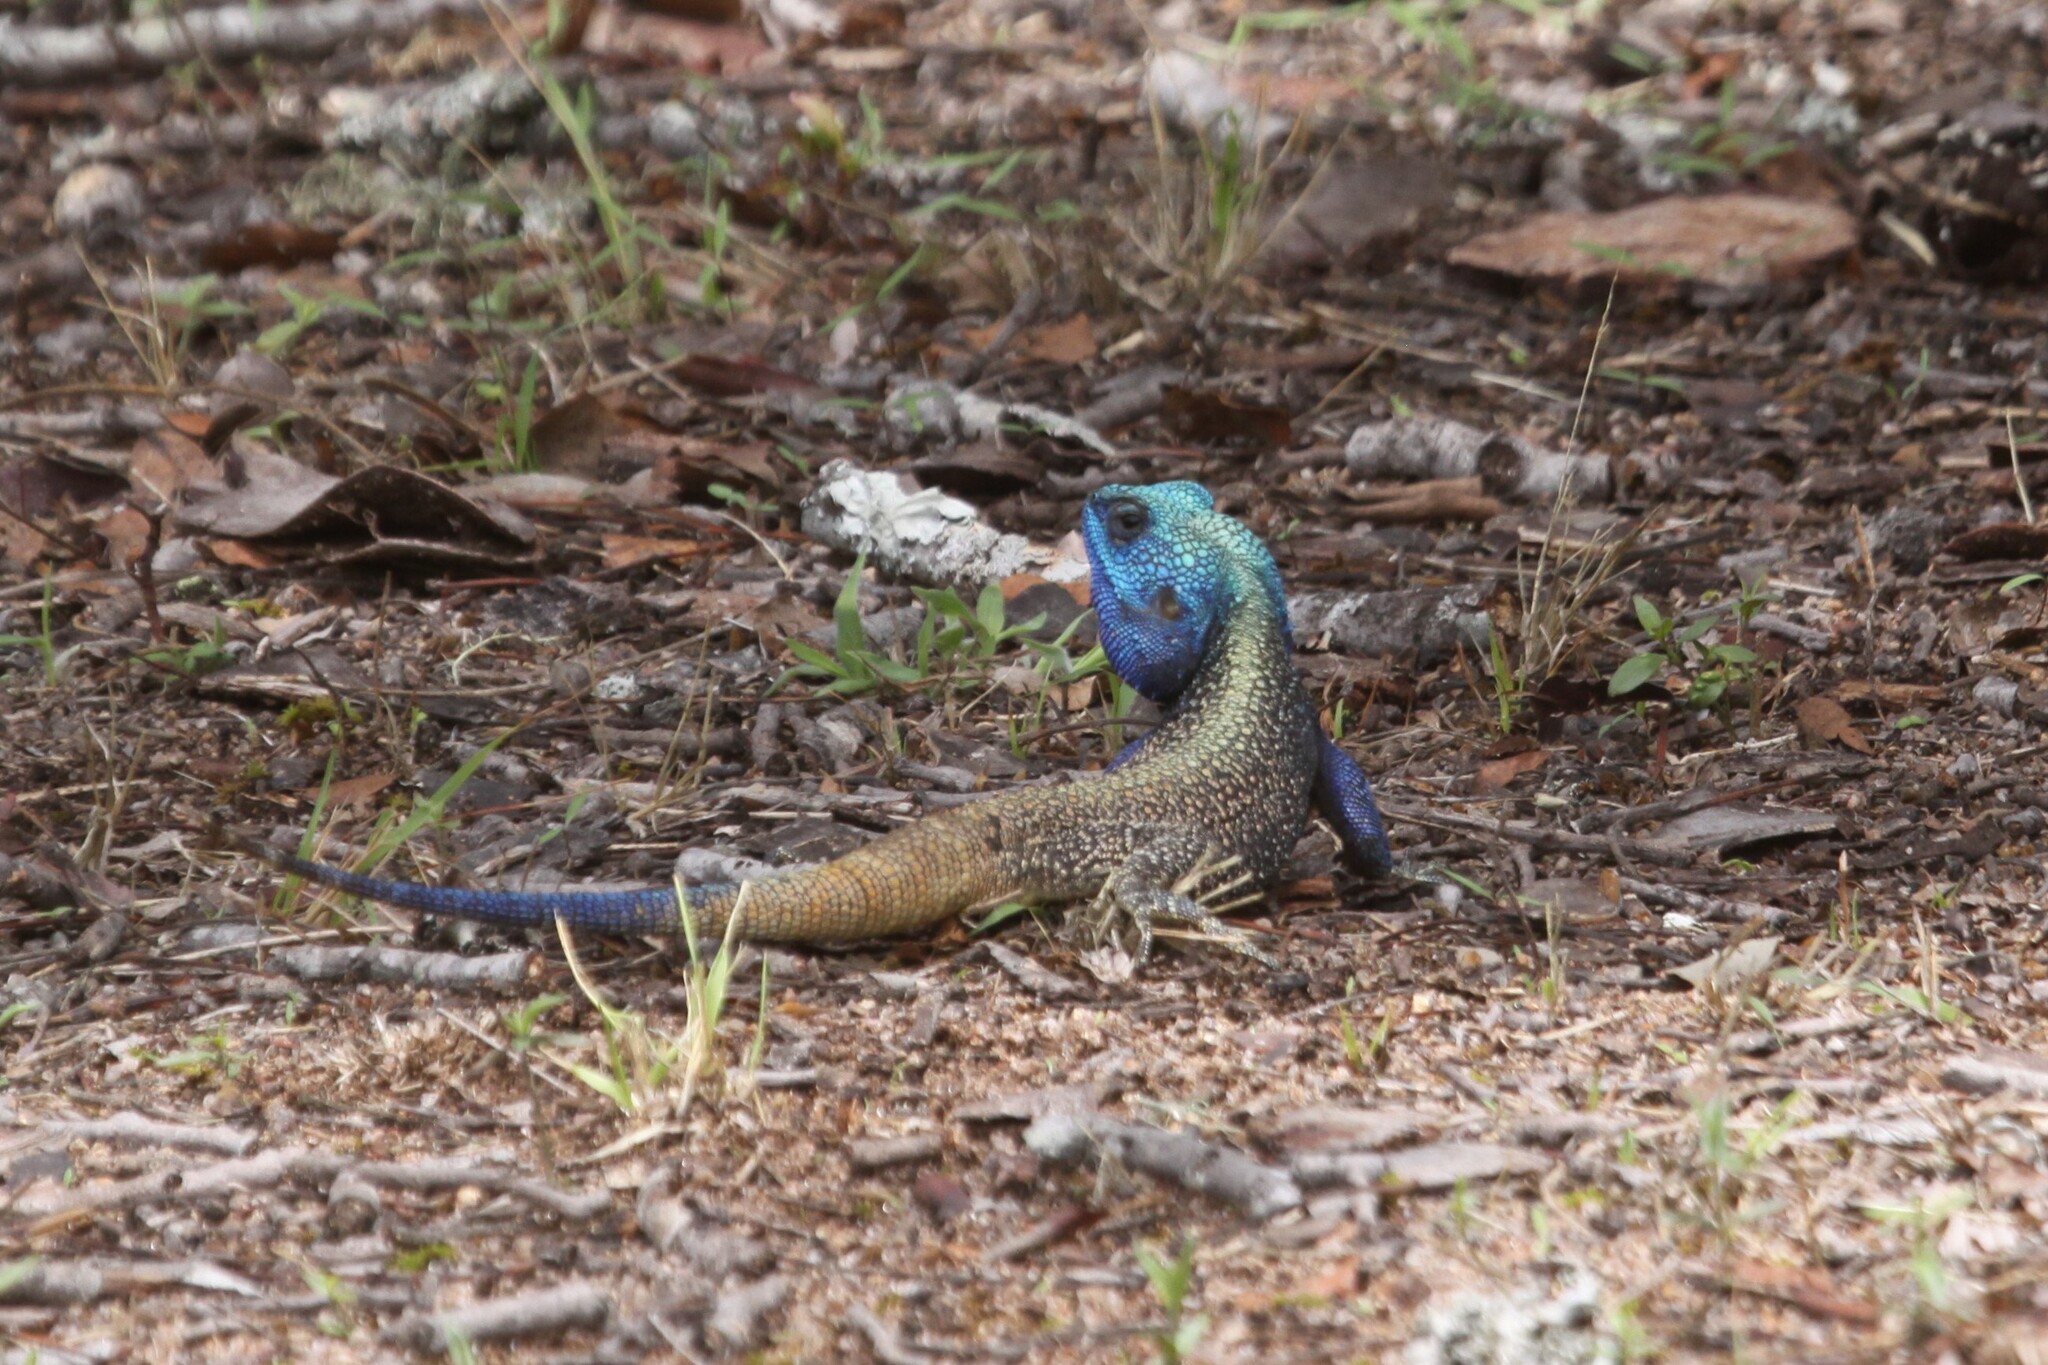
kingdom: Animalia
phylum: Chordata
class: Squamata
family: Agamidae
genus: Acanthocercus
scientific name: Acanthocercus atricollis
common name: Southern tree agama
